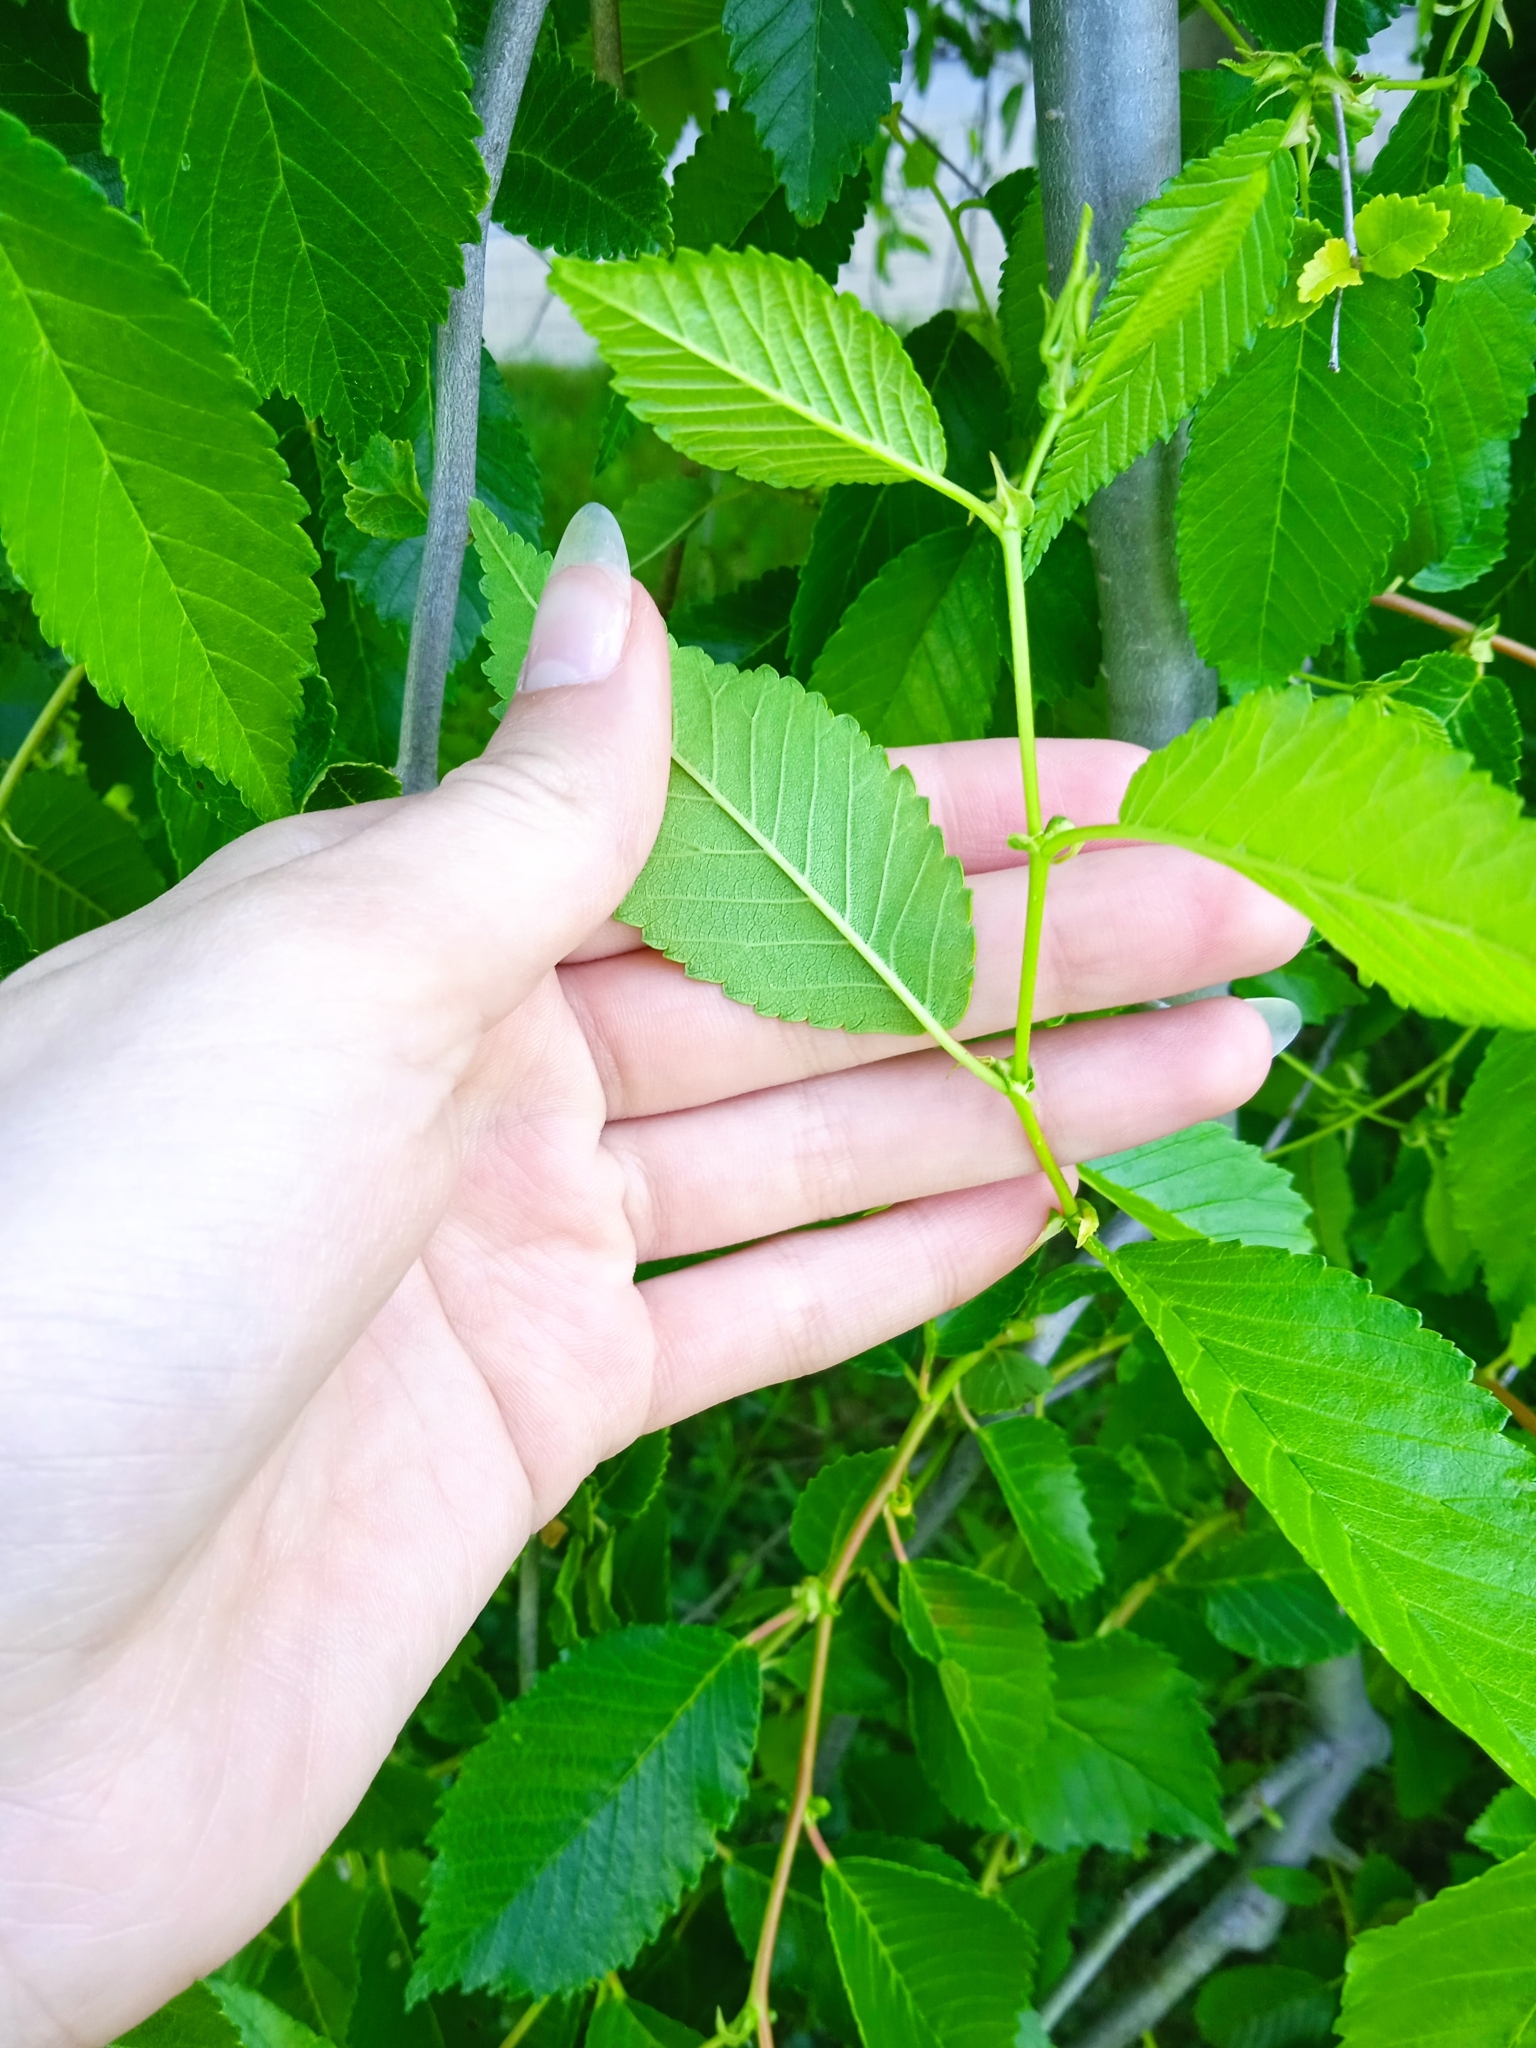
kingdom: Plantae
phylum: Tracheophyta
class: Magnoliopsida
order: Rosales
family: Ulmaceae
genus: Ulmus
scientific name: Ulmus pumila
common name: Siberian elm
